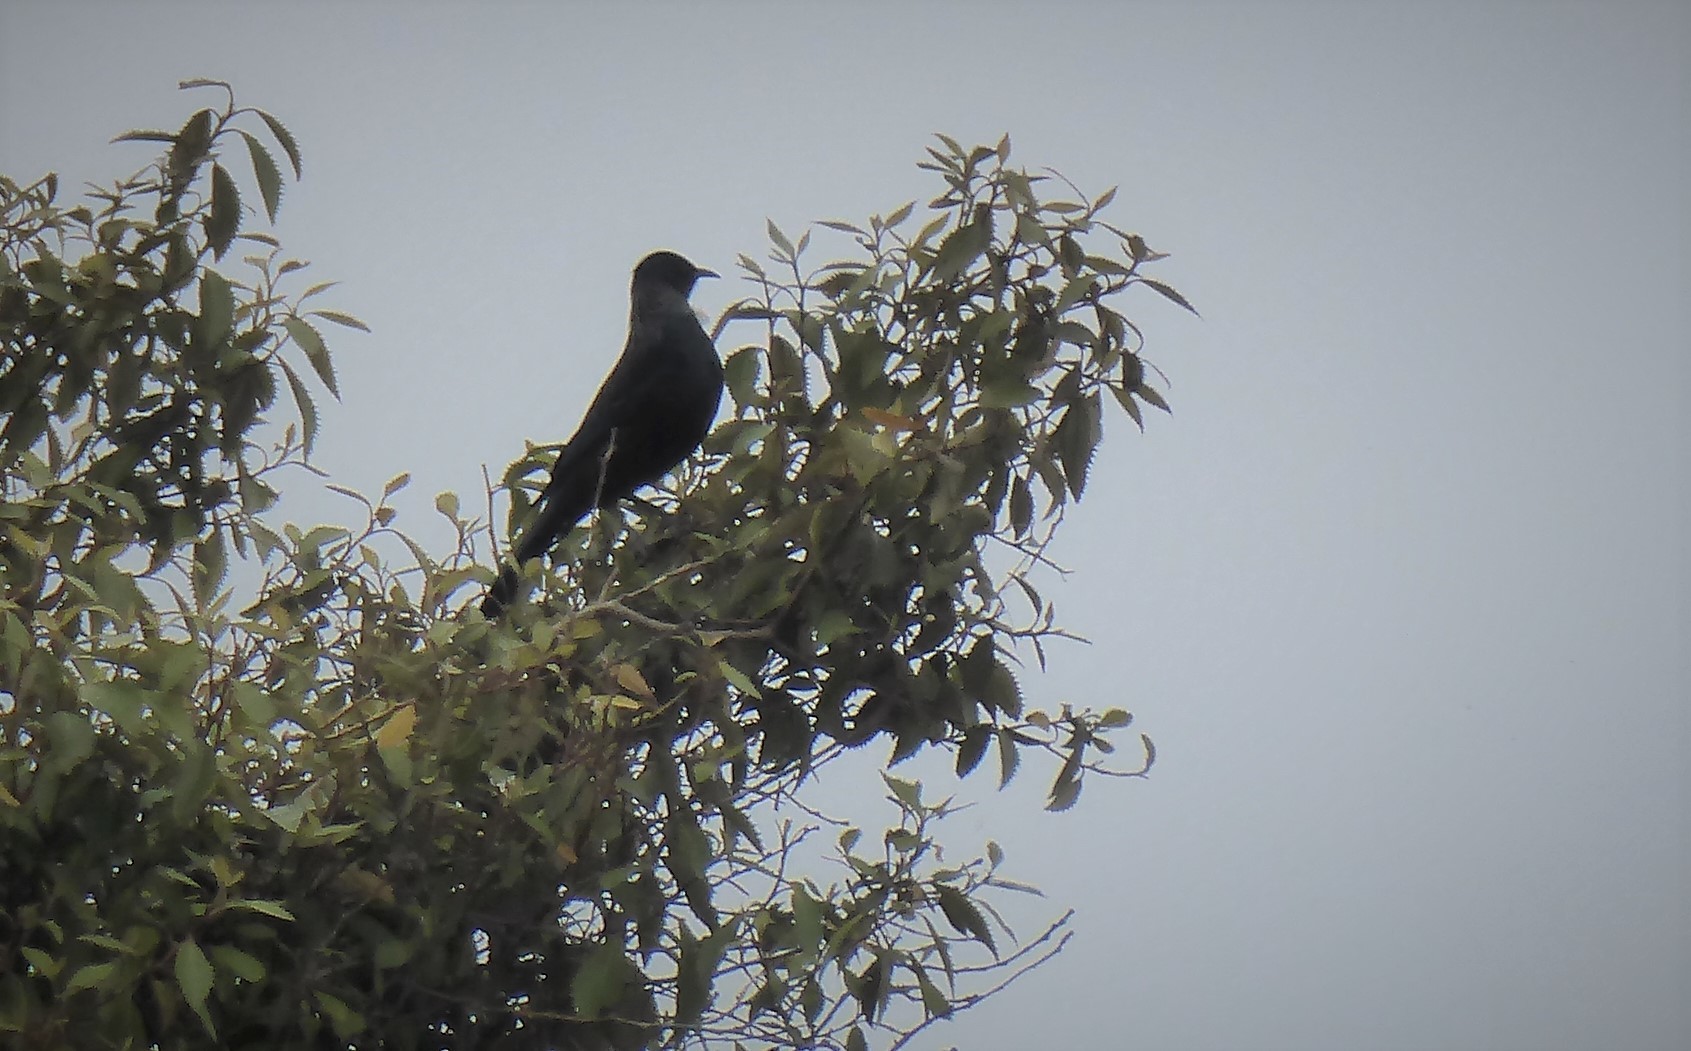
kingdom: Animalia
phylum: Chordata
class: Aves
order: Passeriformes
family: Meliphagidae
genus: Prosthemadera
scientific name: Prosthemadera novaeseelandiae
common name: Tui
